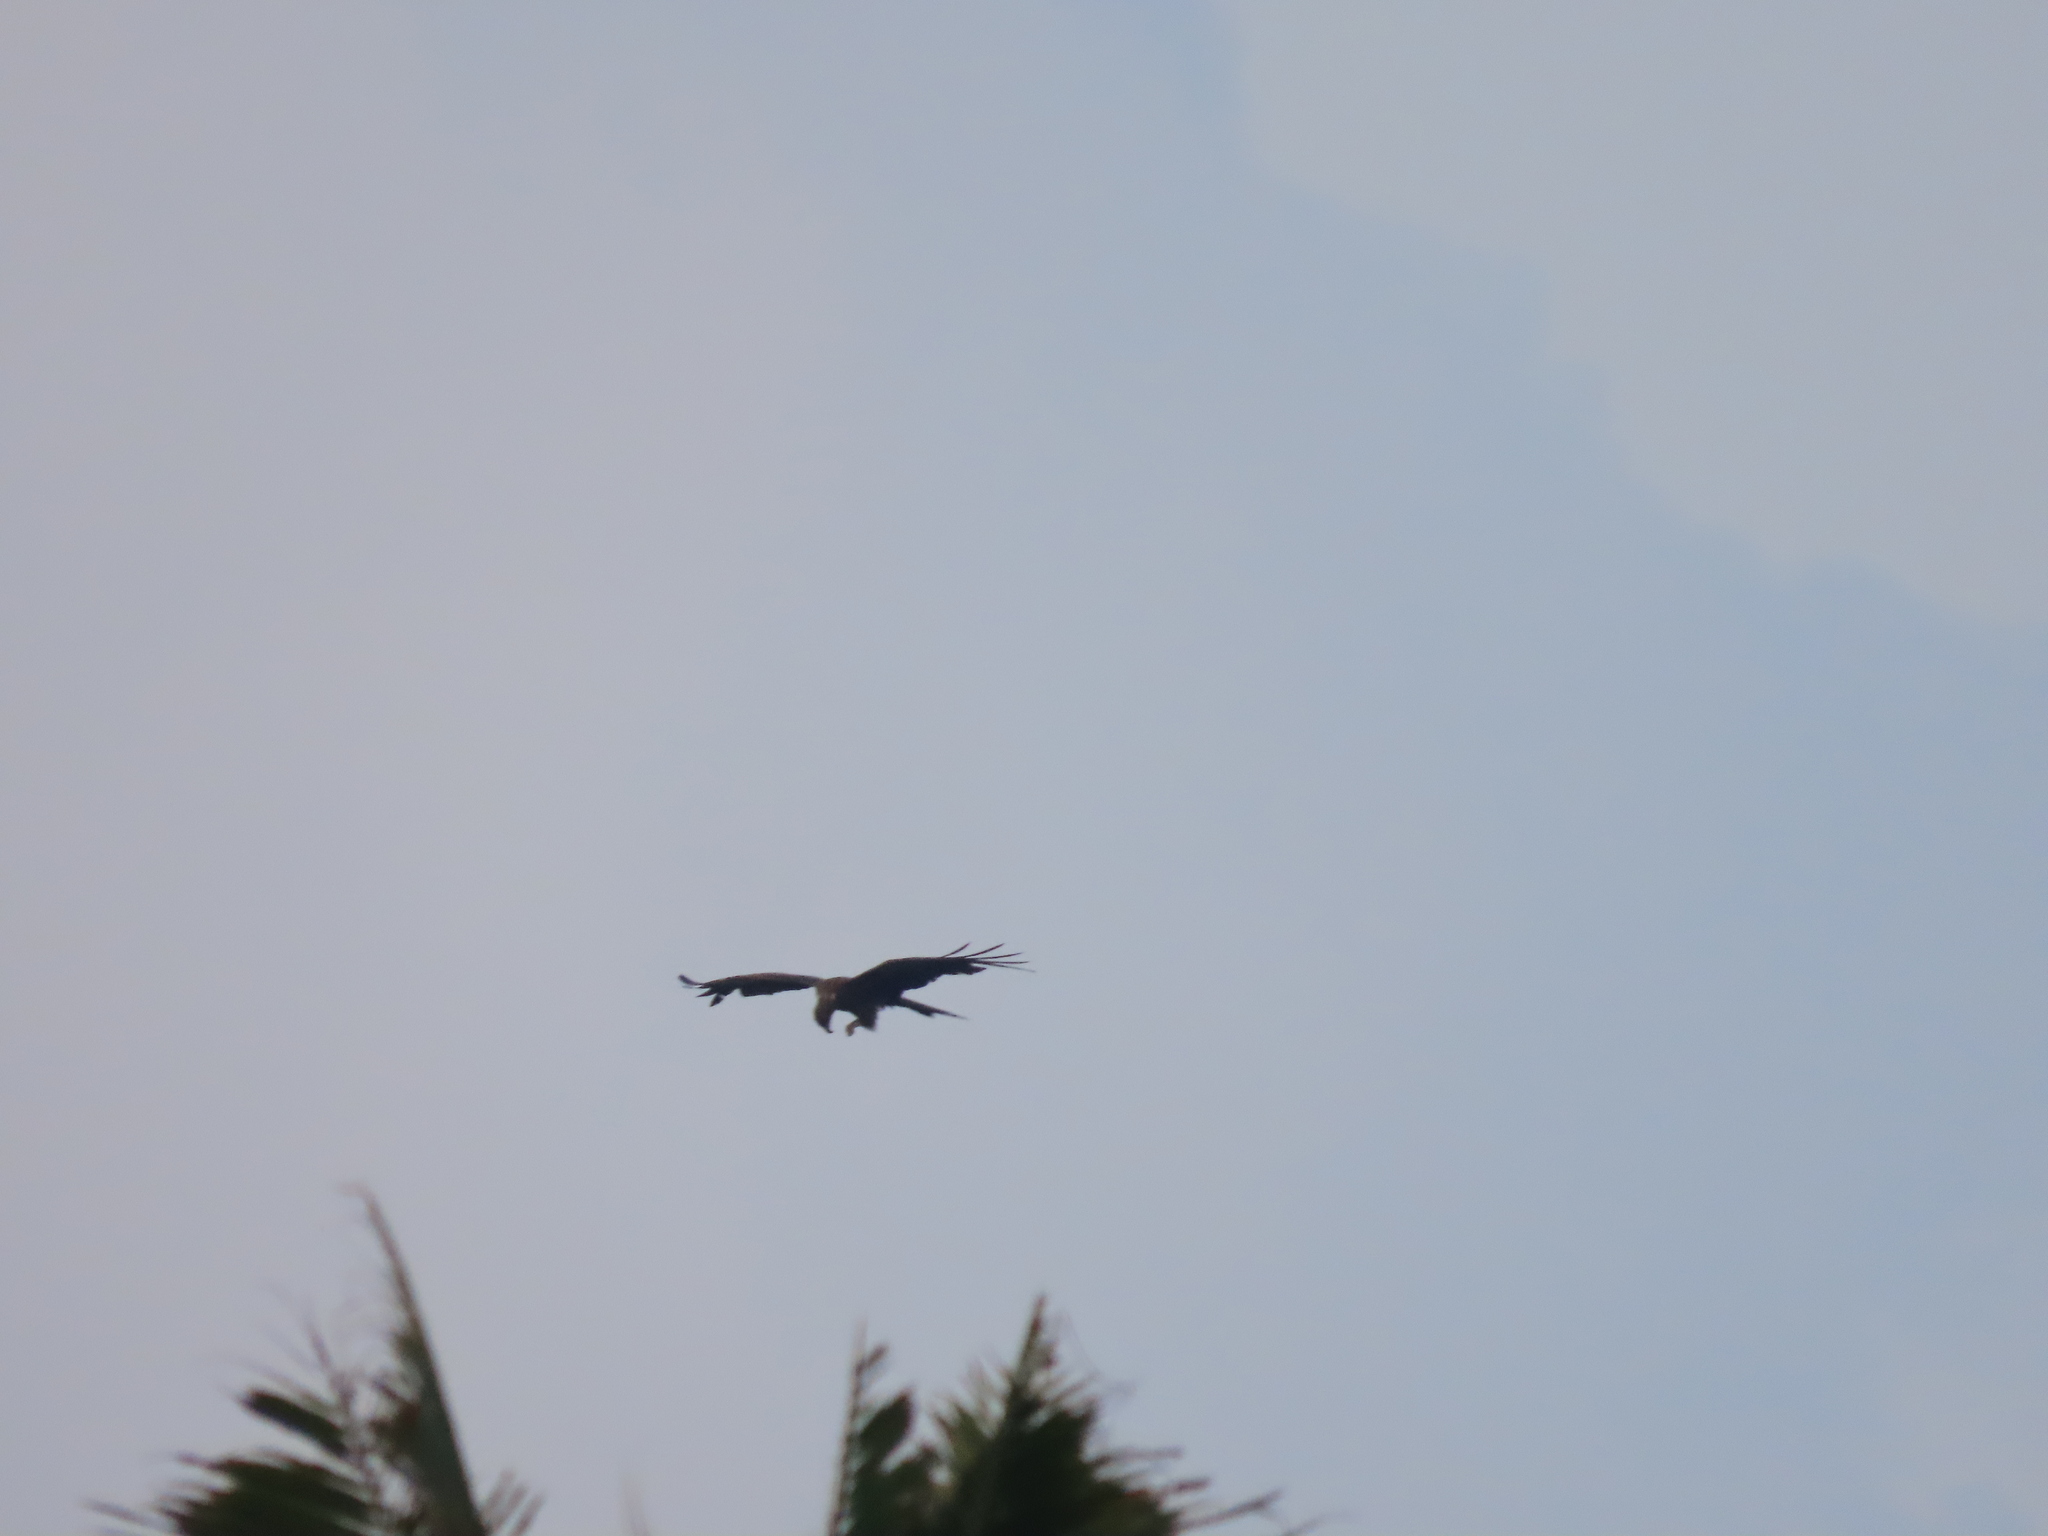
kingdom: Animalia
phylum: Chordata
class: Aves
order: Accipitriformes
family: Accipitridae
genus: Milvus
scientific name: Milvus migrans
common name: Black kite
